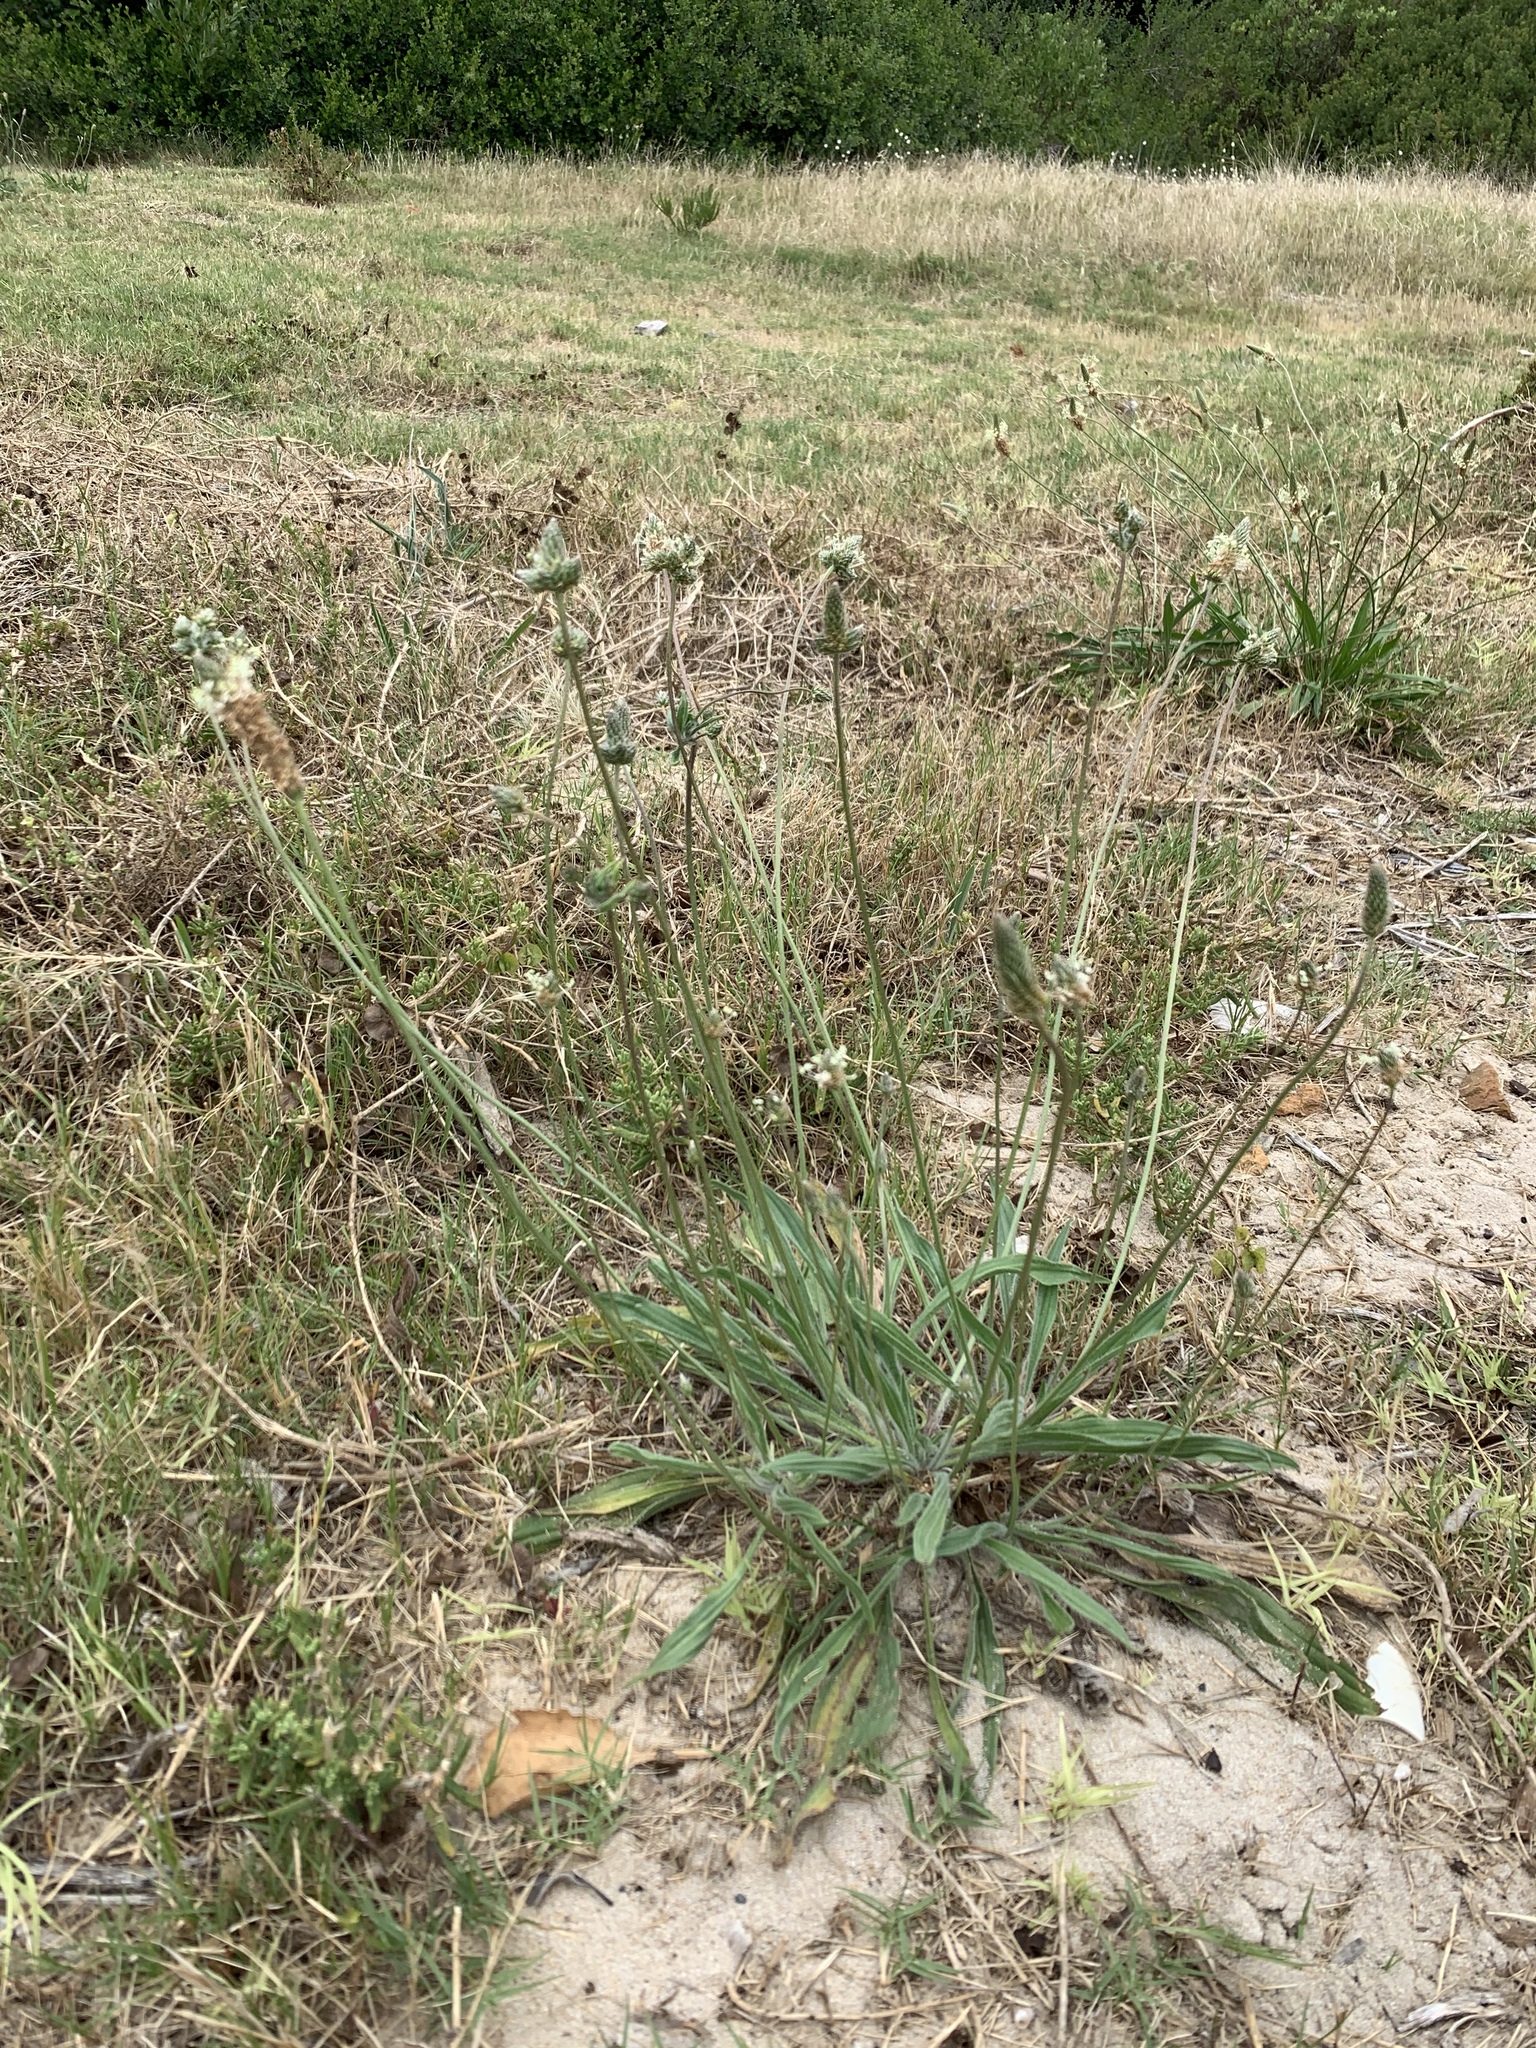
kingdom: Plantae
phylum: Tracheophyta
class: Magnoliopsida
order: Lamiales
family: Plantaginaceae
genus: Plantago
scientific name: Plantago lanceolata
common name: Ribwort plantain
